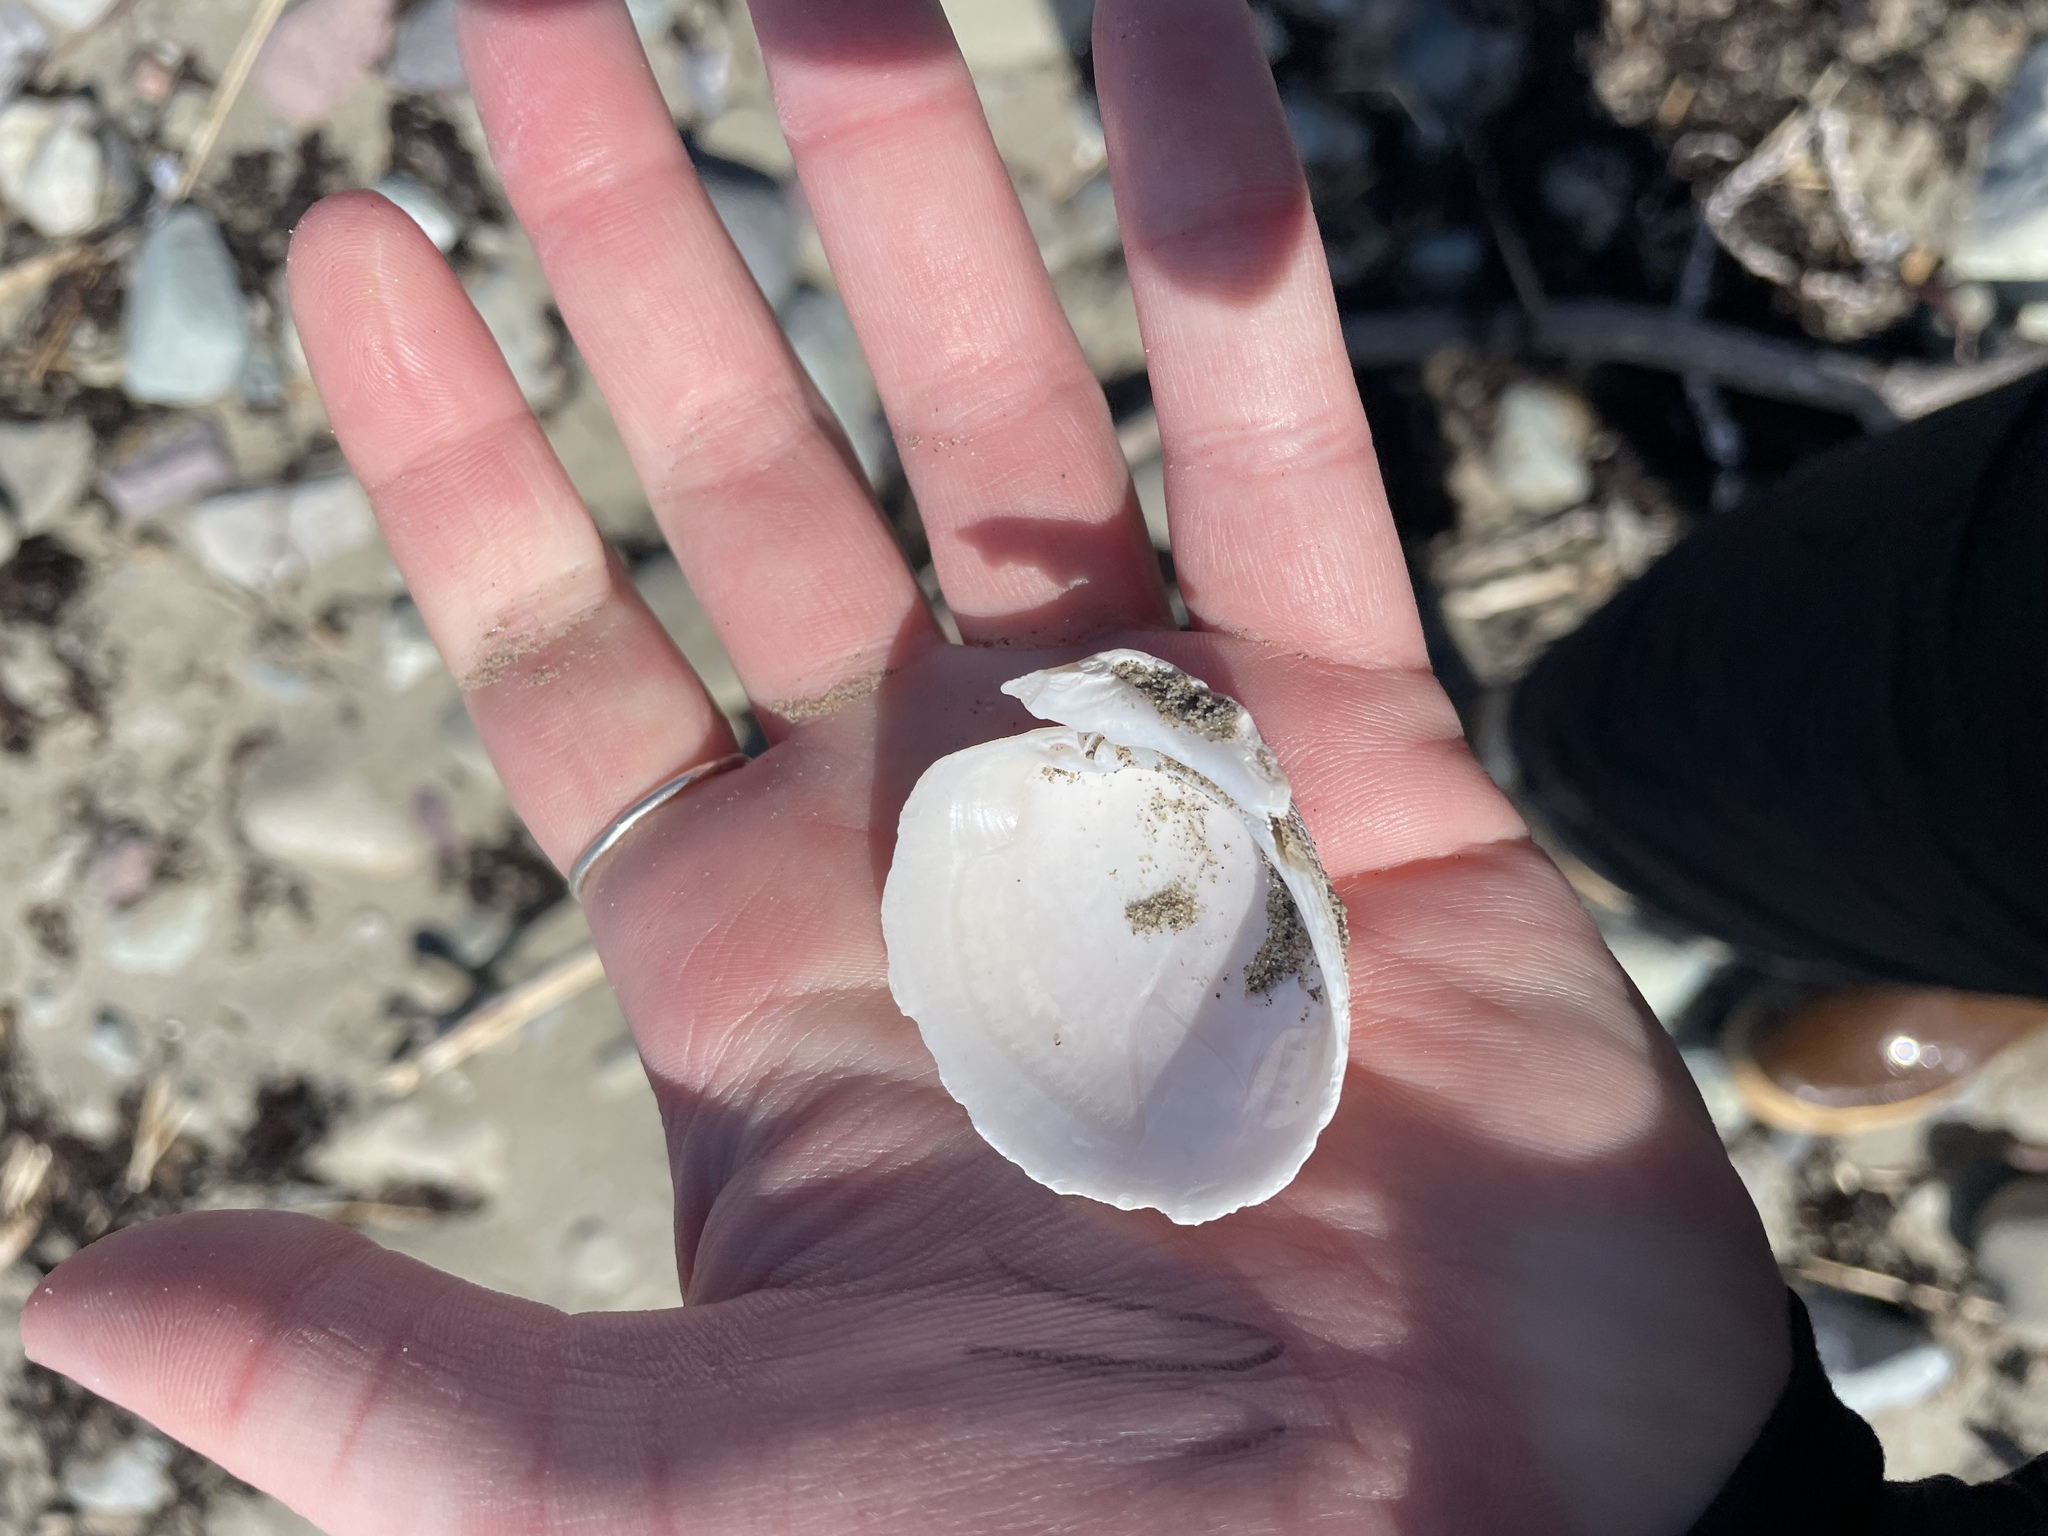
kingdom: Animalia
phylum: Mollusca
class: Bivalvia
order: Venerida
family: Veneridae
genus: Agriopoma
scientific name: Agriopoma morrhuanum
